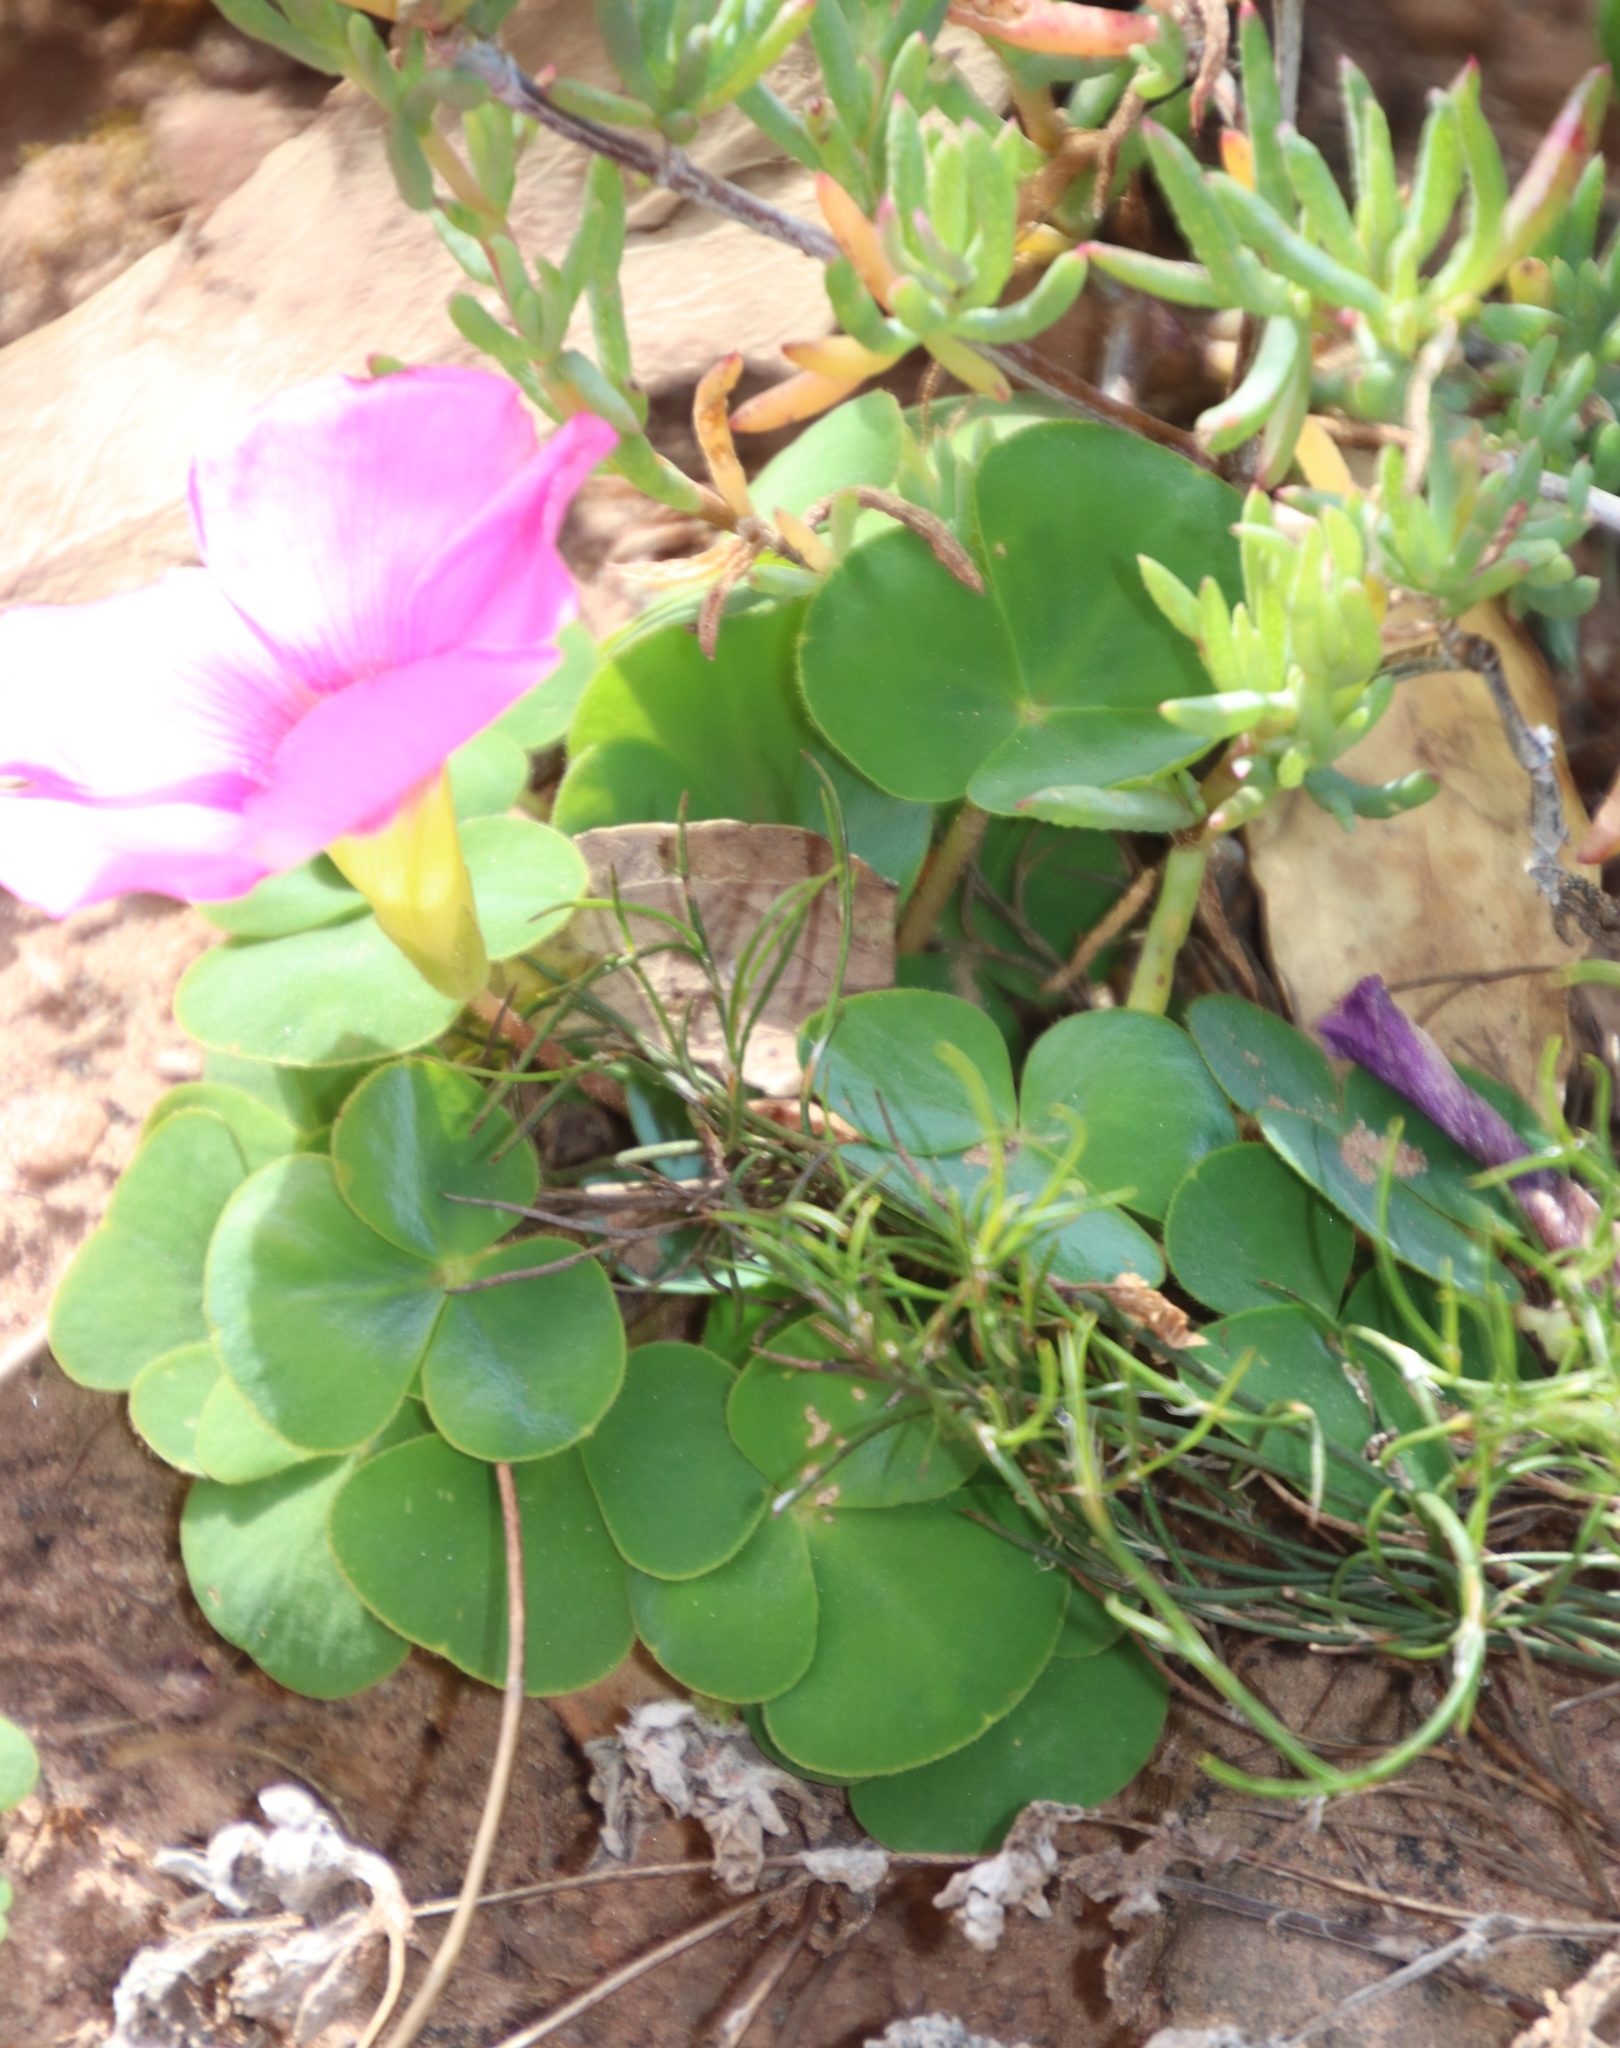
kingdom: Plantae
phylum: Tracheophyta
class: Magnoliopsida
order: Oxalidales
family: Oxalidaceae
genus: Oxalis
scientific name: Oxalis purpurea
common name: Purple woodsorrel
